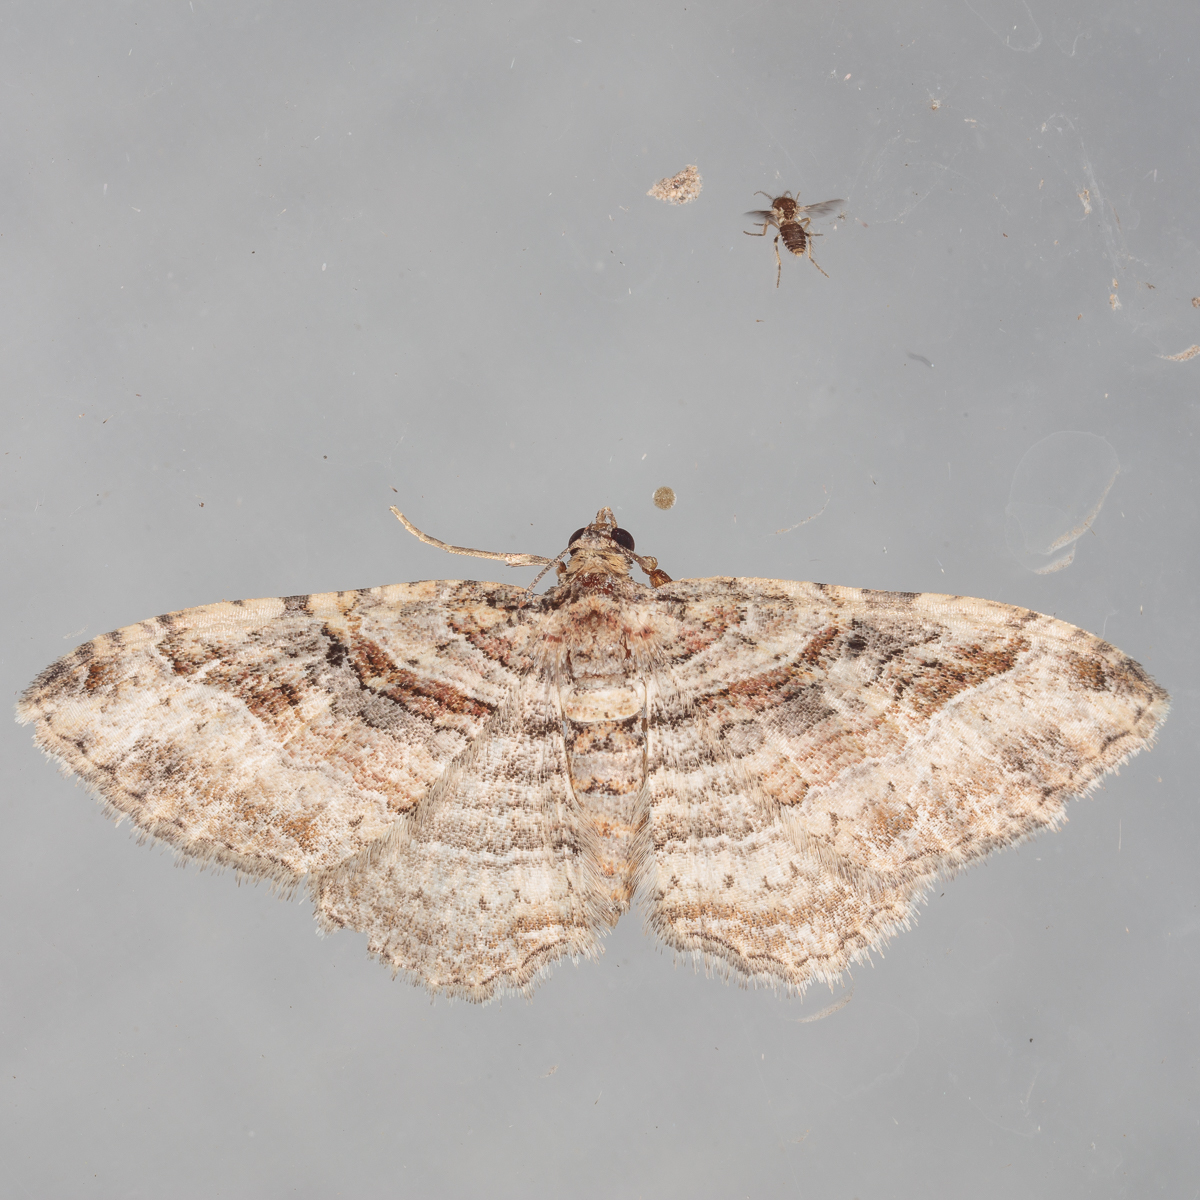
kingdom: Animalia
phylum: Arthropoda
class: Insecta
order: Lepidoptera
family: Geometridae
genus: Costaconvexa
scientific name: Costaconvexa centrostrigaria
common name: Bent-line carpet
